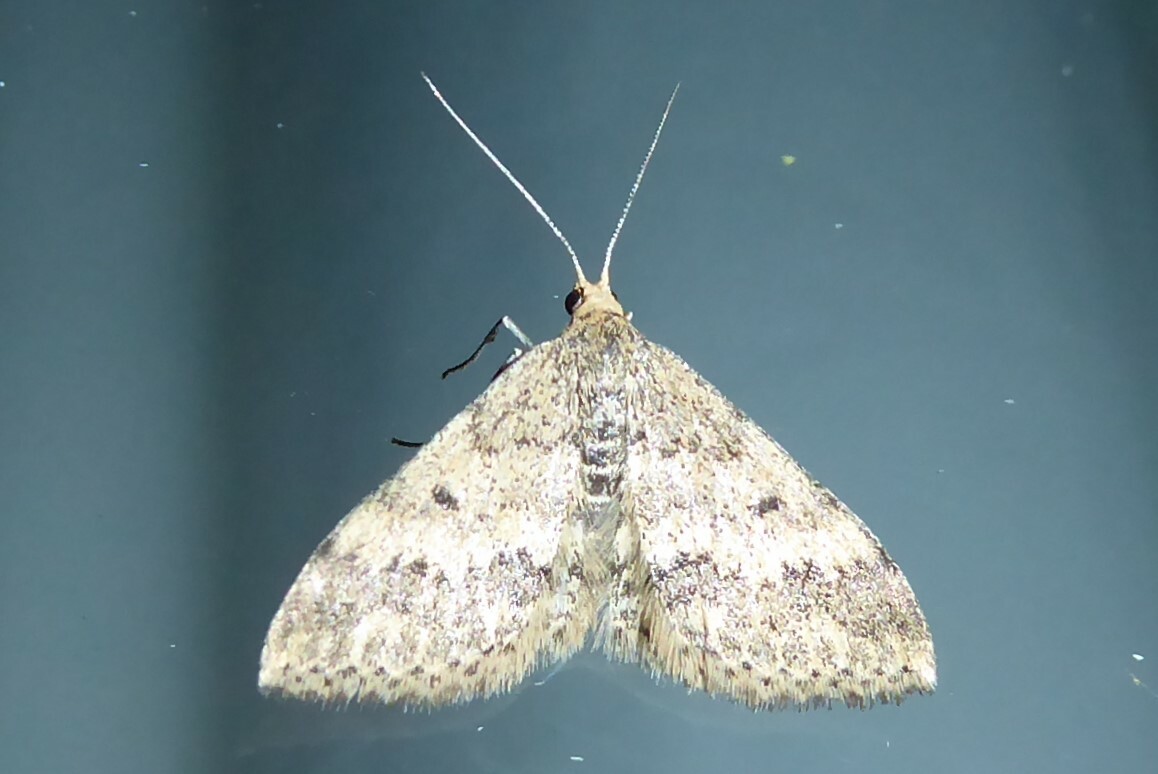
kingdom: Animalia
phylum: Arthropoda
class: Insecta
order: Lepidoptera
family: Geometridae
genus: Scopula
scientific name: Scopula rubraria
